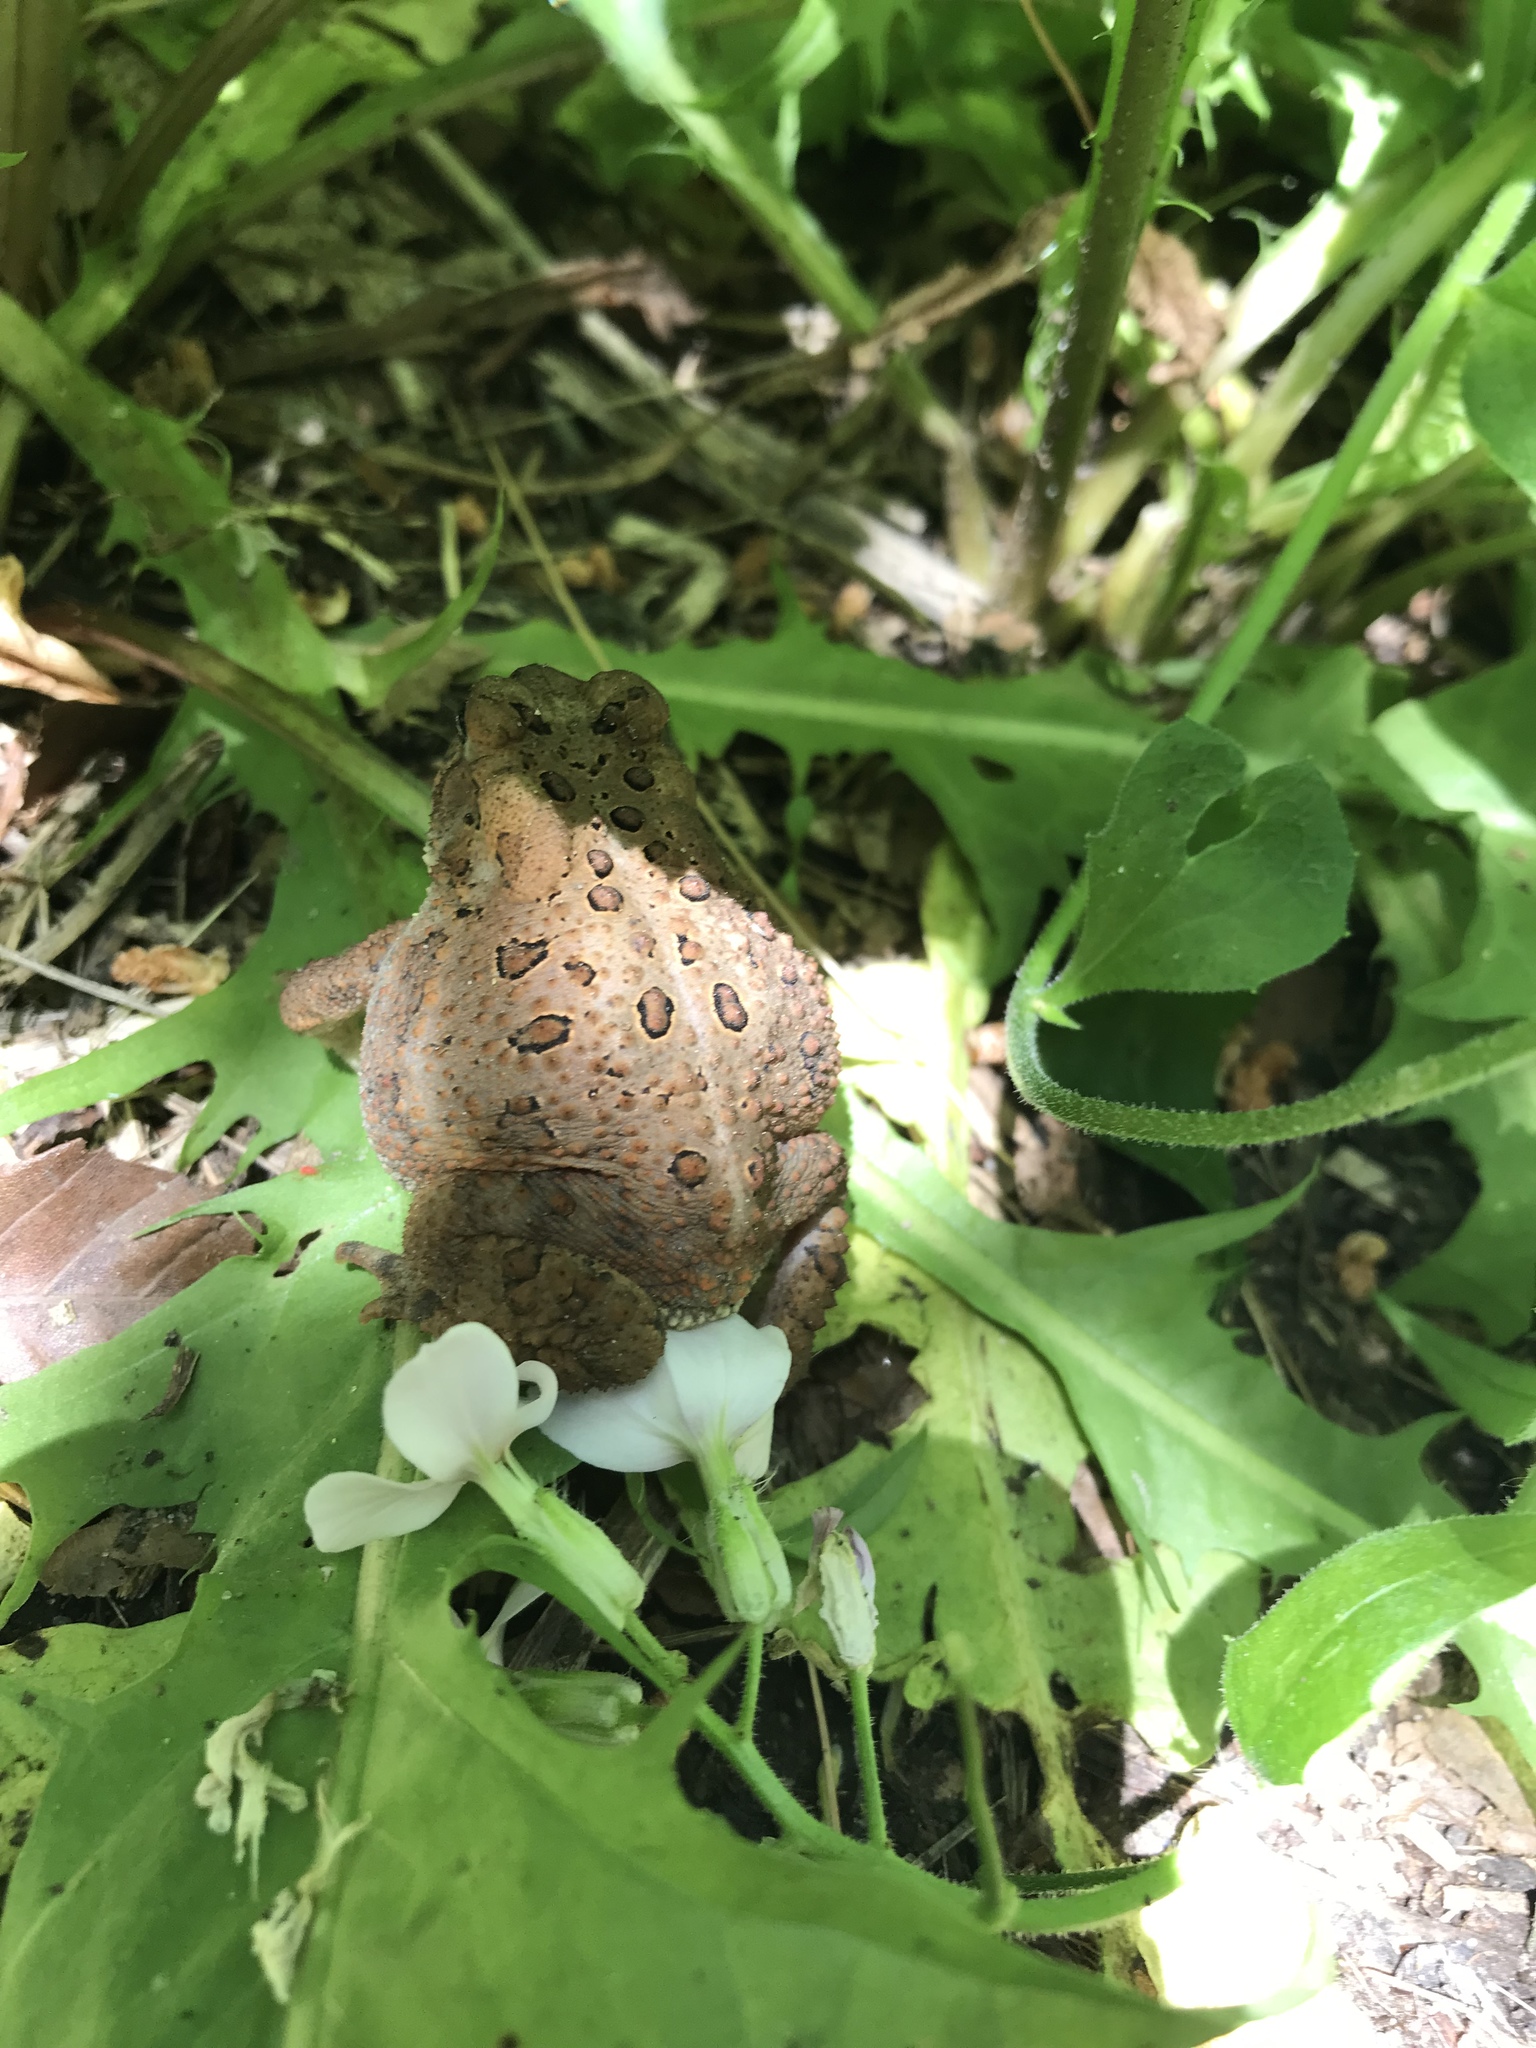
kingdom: Animalia
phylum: Chordata
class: Amphibia
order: Anura
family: Bufonidae
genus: Anaxyrus
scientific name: Anaxyrus americanus
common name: American toad
